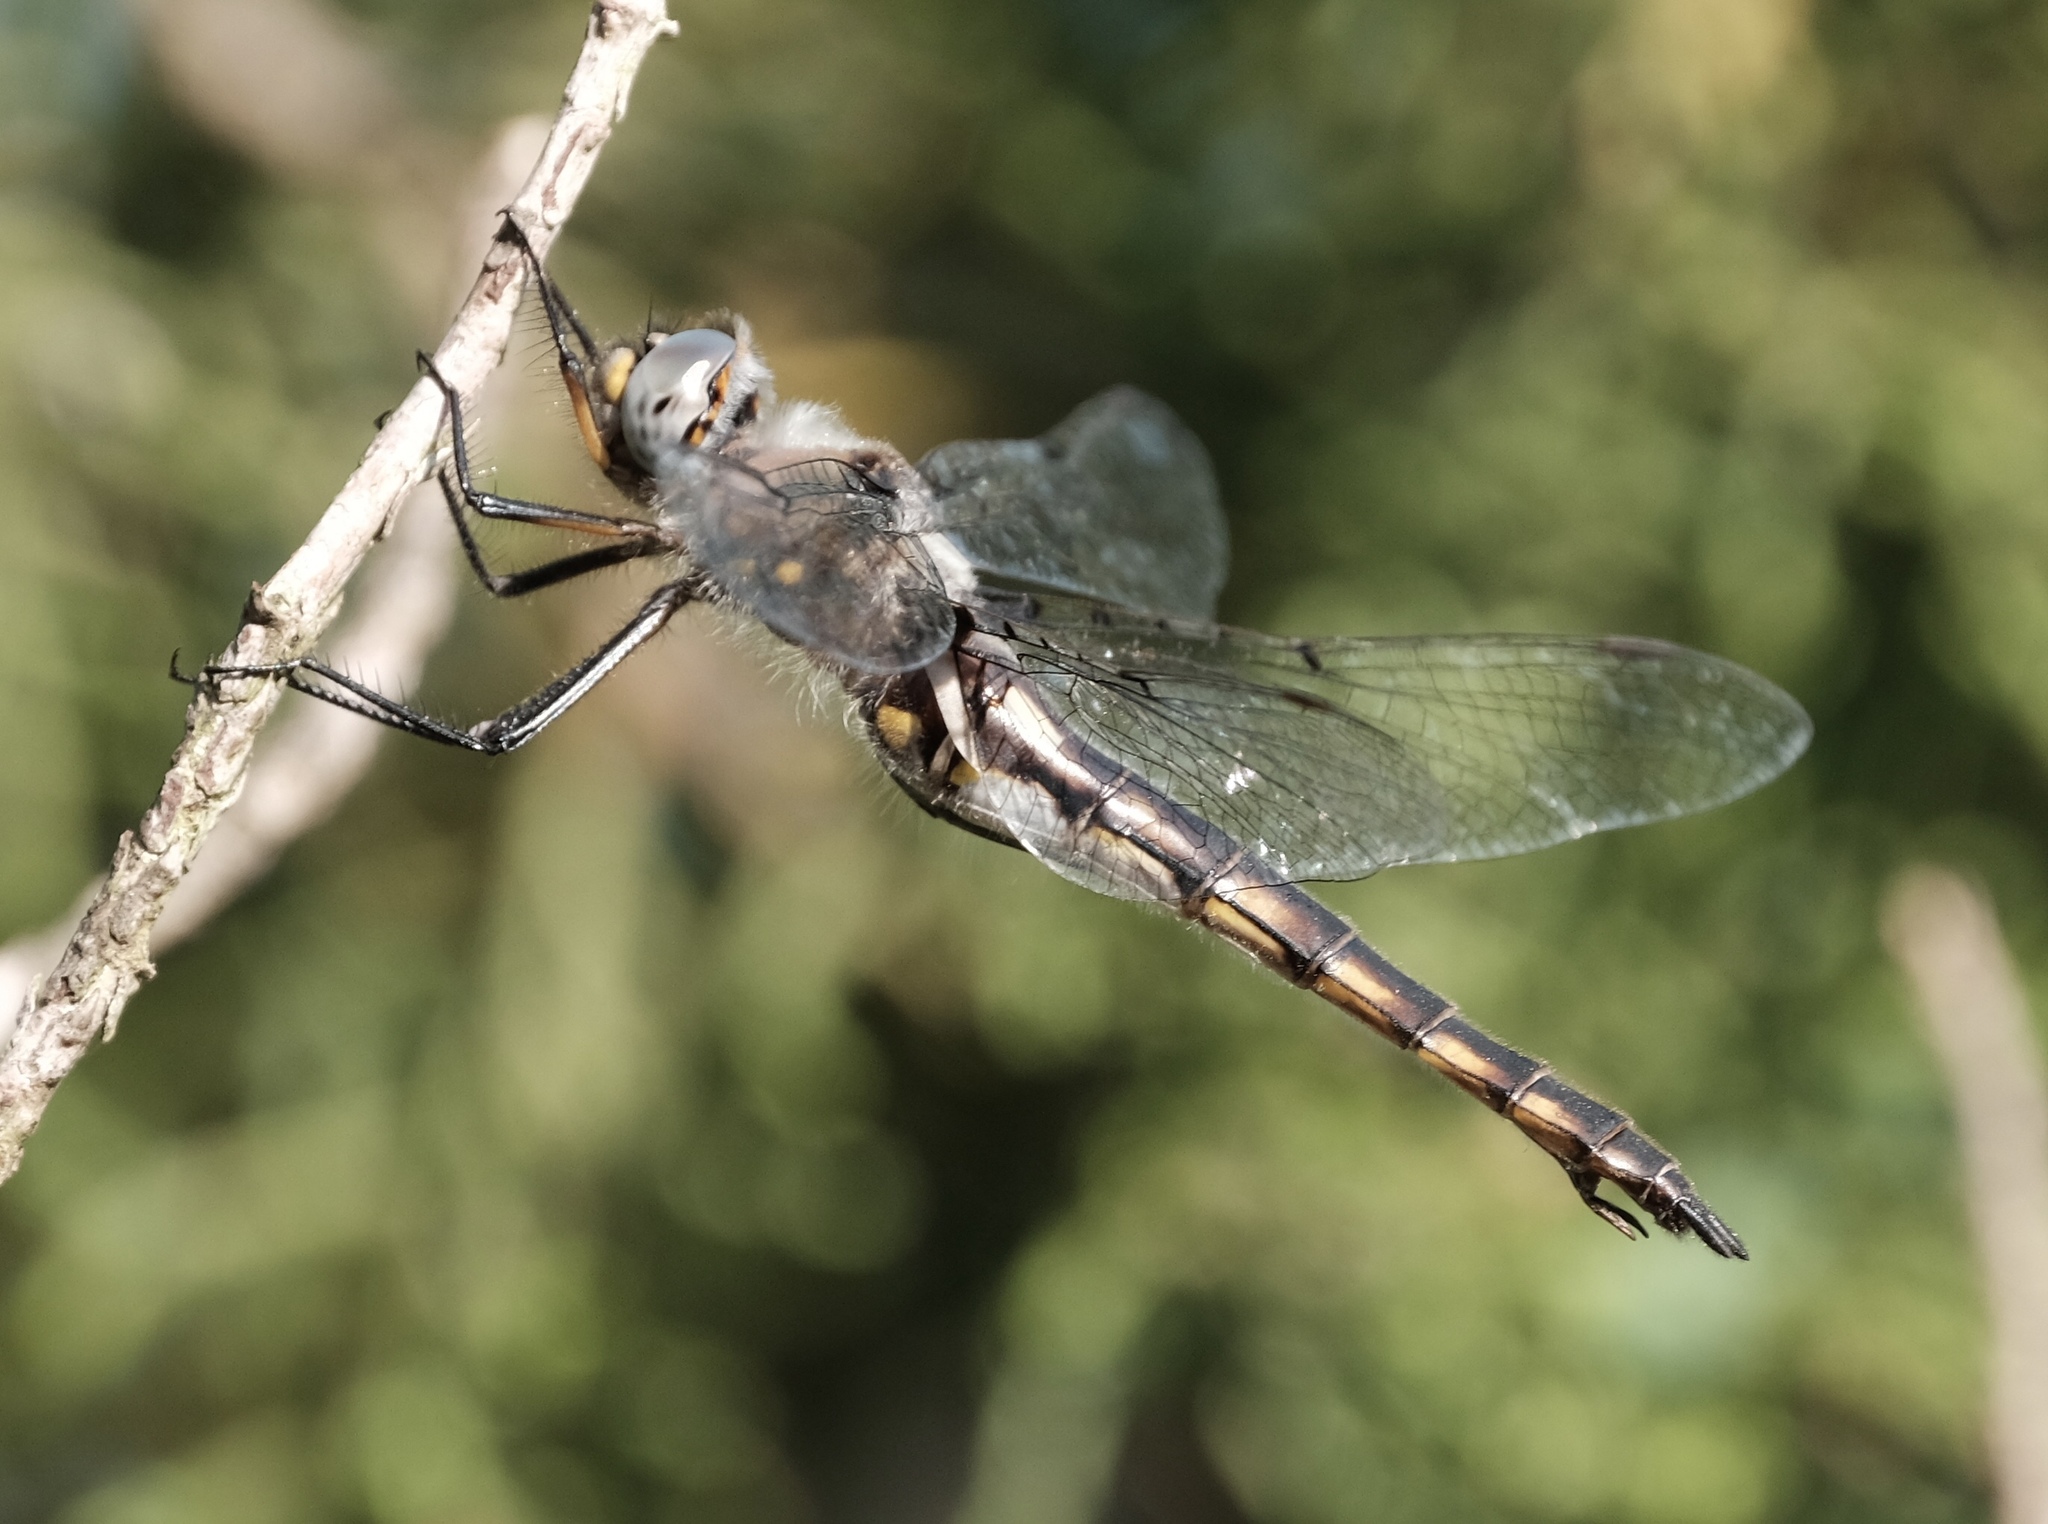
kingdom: Animalia
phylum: Arthropoda
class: Insecta
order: Odonata
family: Corduliidae
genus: Epitheca
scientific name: Epitheca petechialis
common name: Dot-winged baskettail
